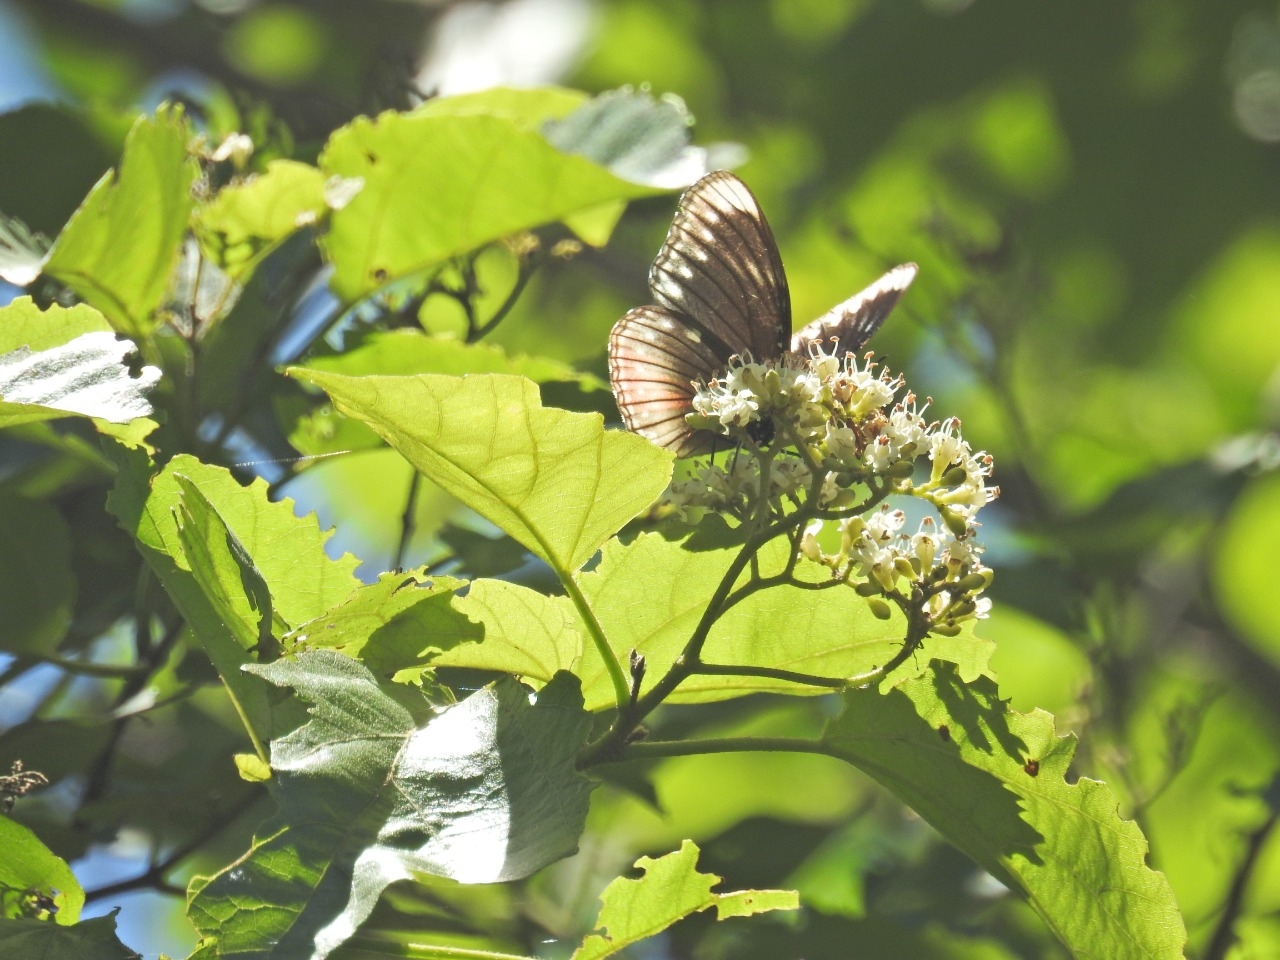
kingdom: Animalia
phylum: Arthropoda
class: Insecta
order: Lepidoptera
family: Nymphalidae
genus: Hypolimnas
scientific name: Hypolimnas antilope
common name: Spotted crow eggfly
